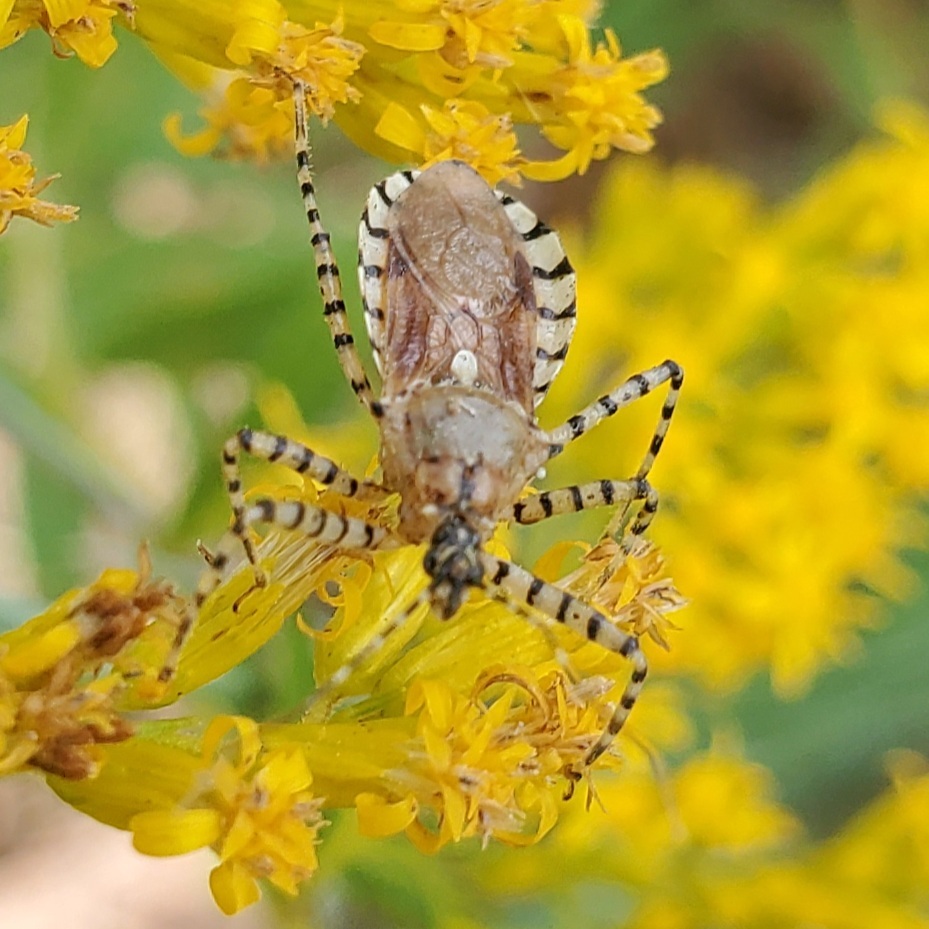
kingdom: Animalia
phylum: Arthropoda
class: Insecta
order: Hemiptera
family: Reduviidae
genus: Pselliopus
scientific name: Pselliopus cinctus
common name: Ringed assassin bug
